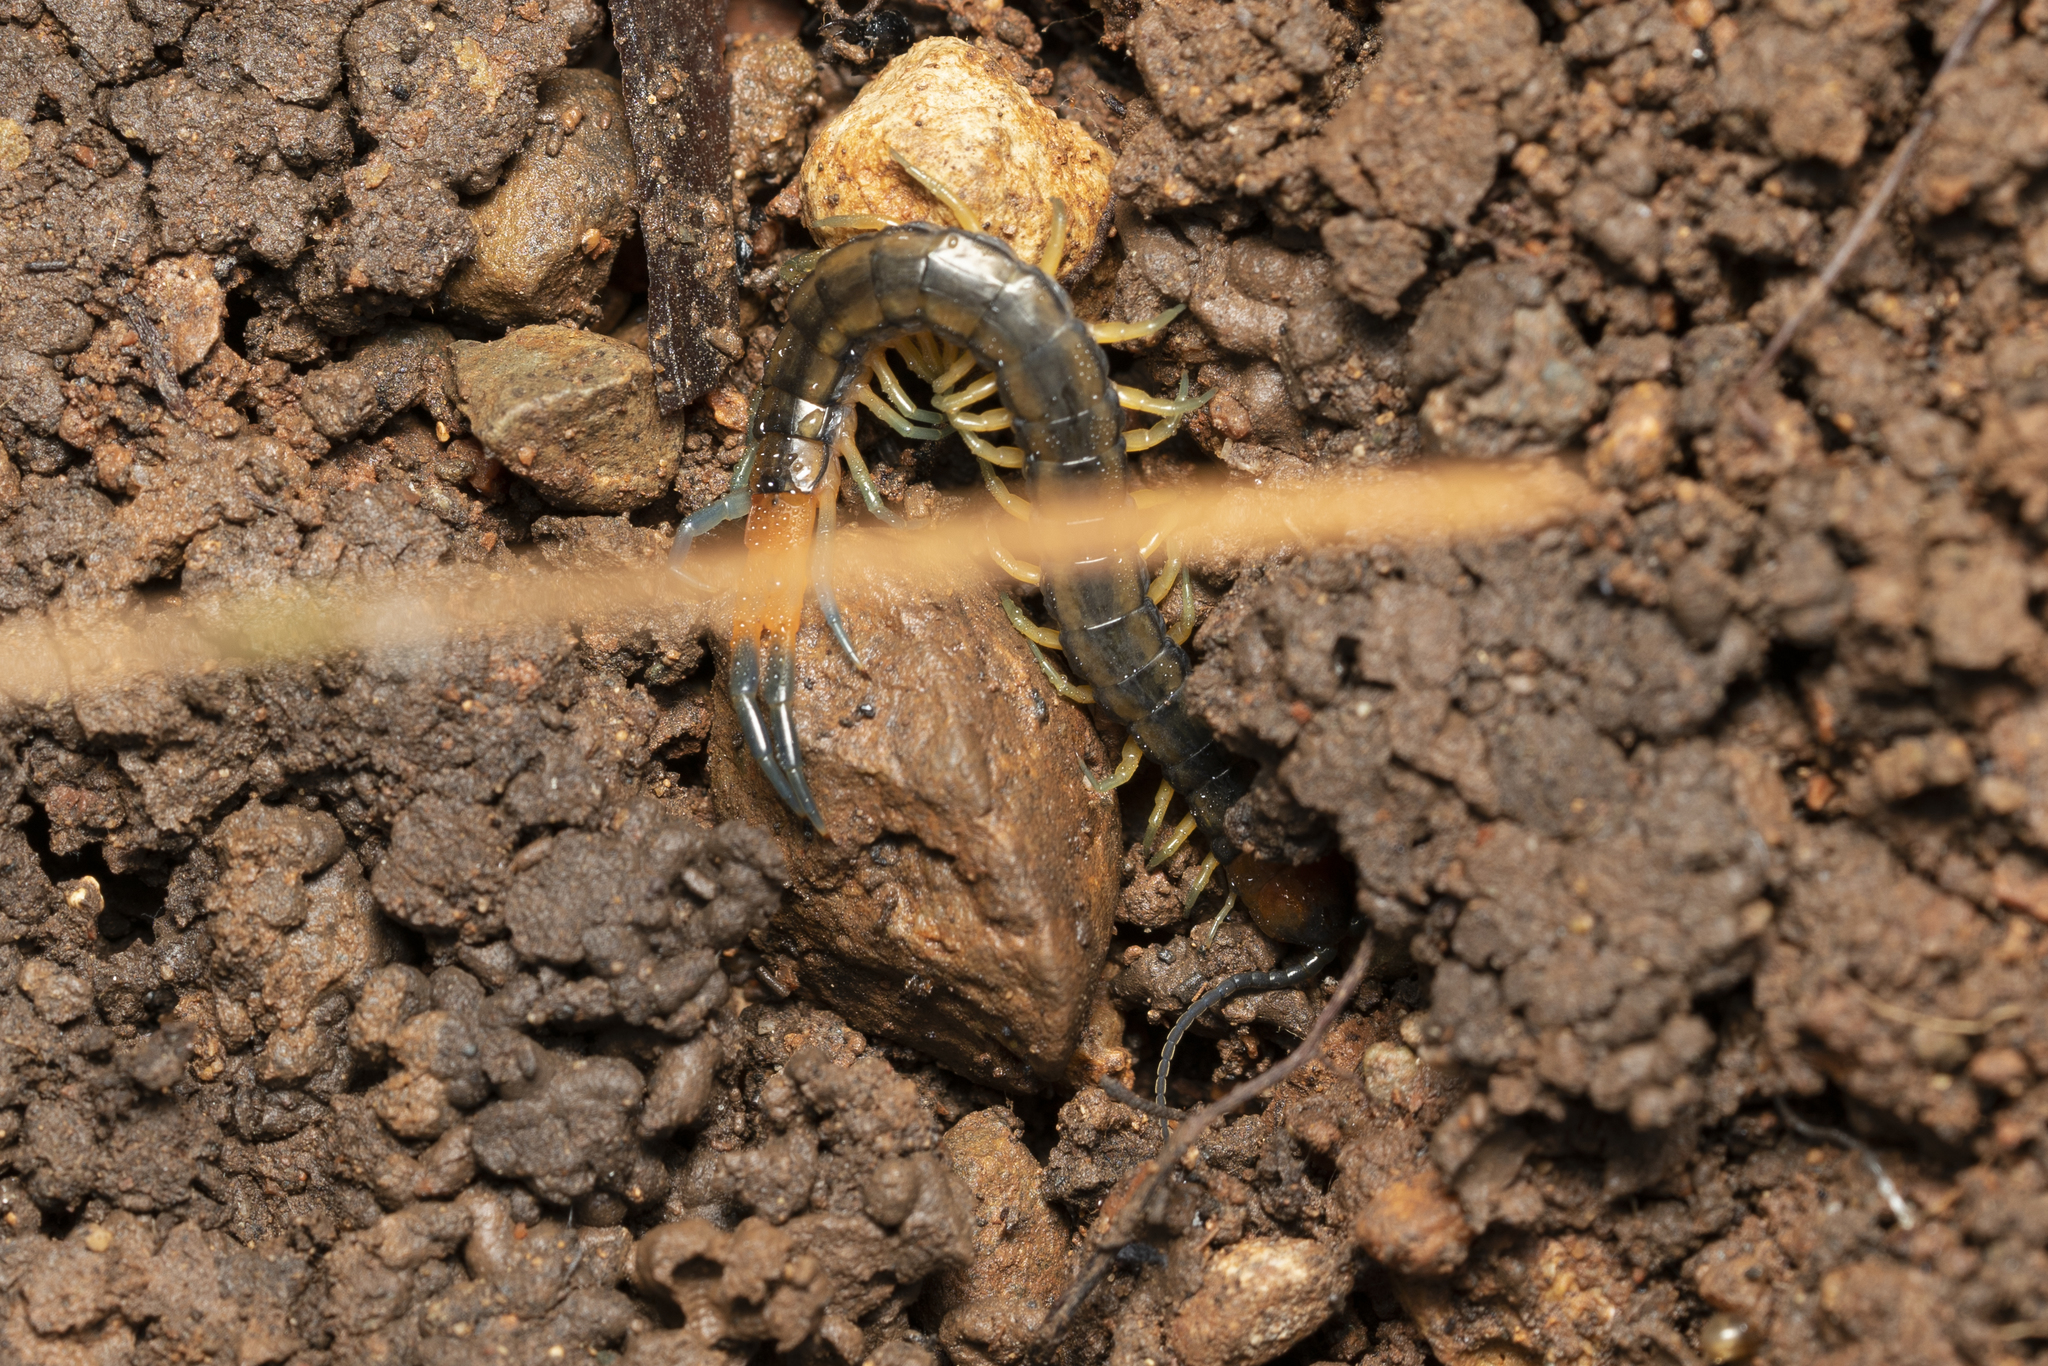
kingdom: Animalia
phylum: Arthropoda
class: Chilopoda
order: Scolopendromorpha
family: Scolopendridae
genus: Scolopendra
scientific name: Scolopendra cingulata
